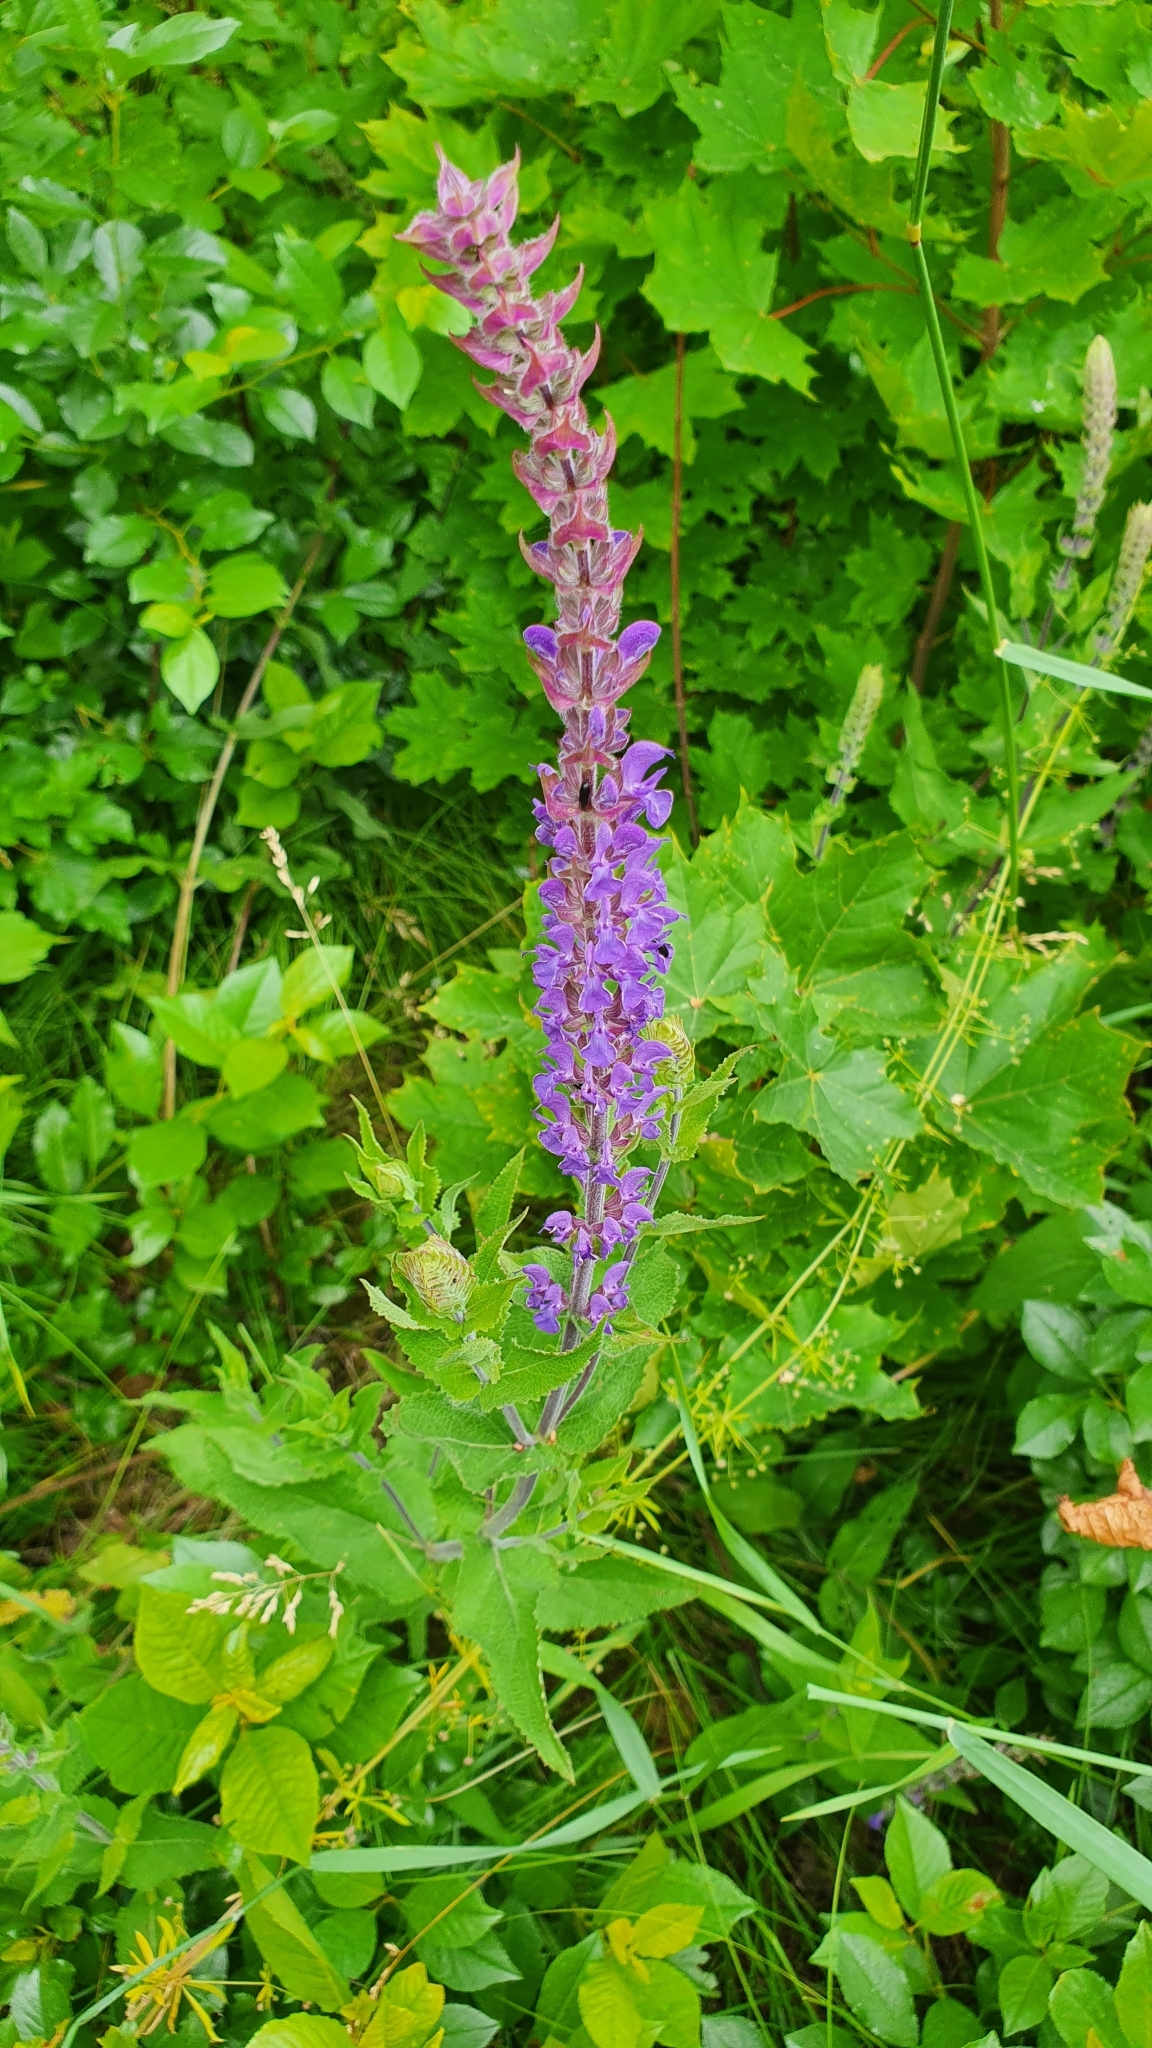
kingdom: Plantae
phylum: Tracheophyta
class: Magnoliopsida
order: Lamiales
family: Lamiaceae
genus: Salvia
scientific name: Salvia nemorosa
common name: Balkan clary
